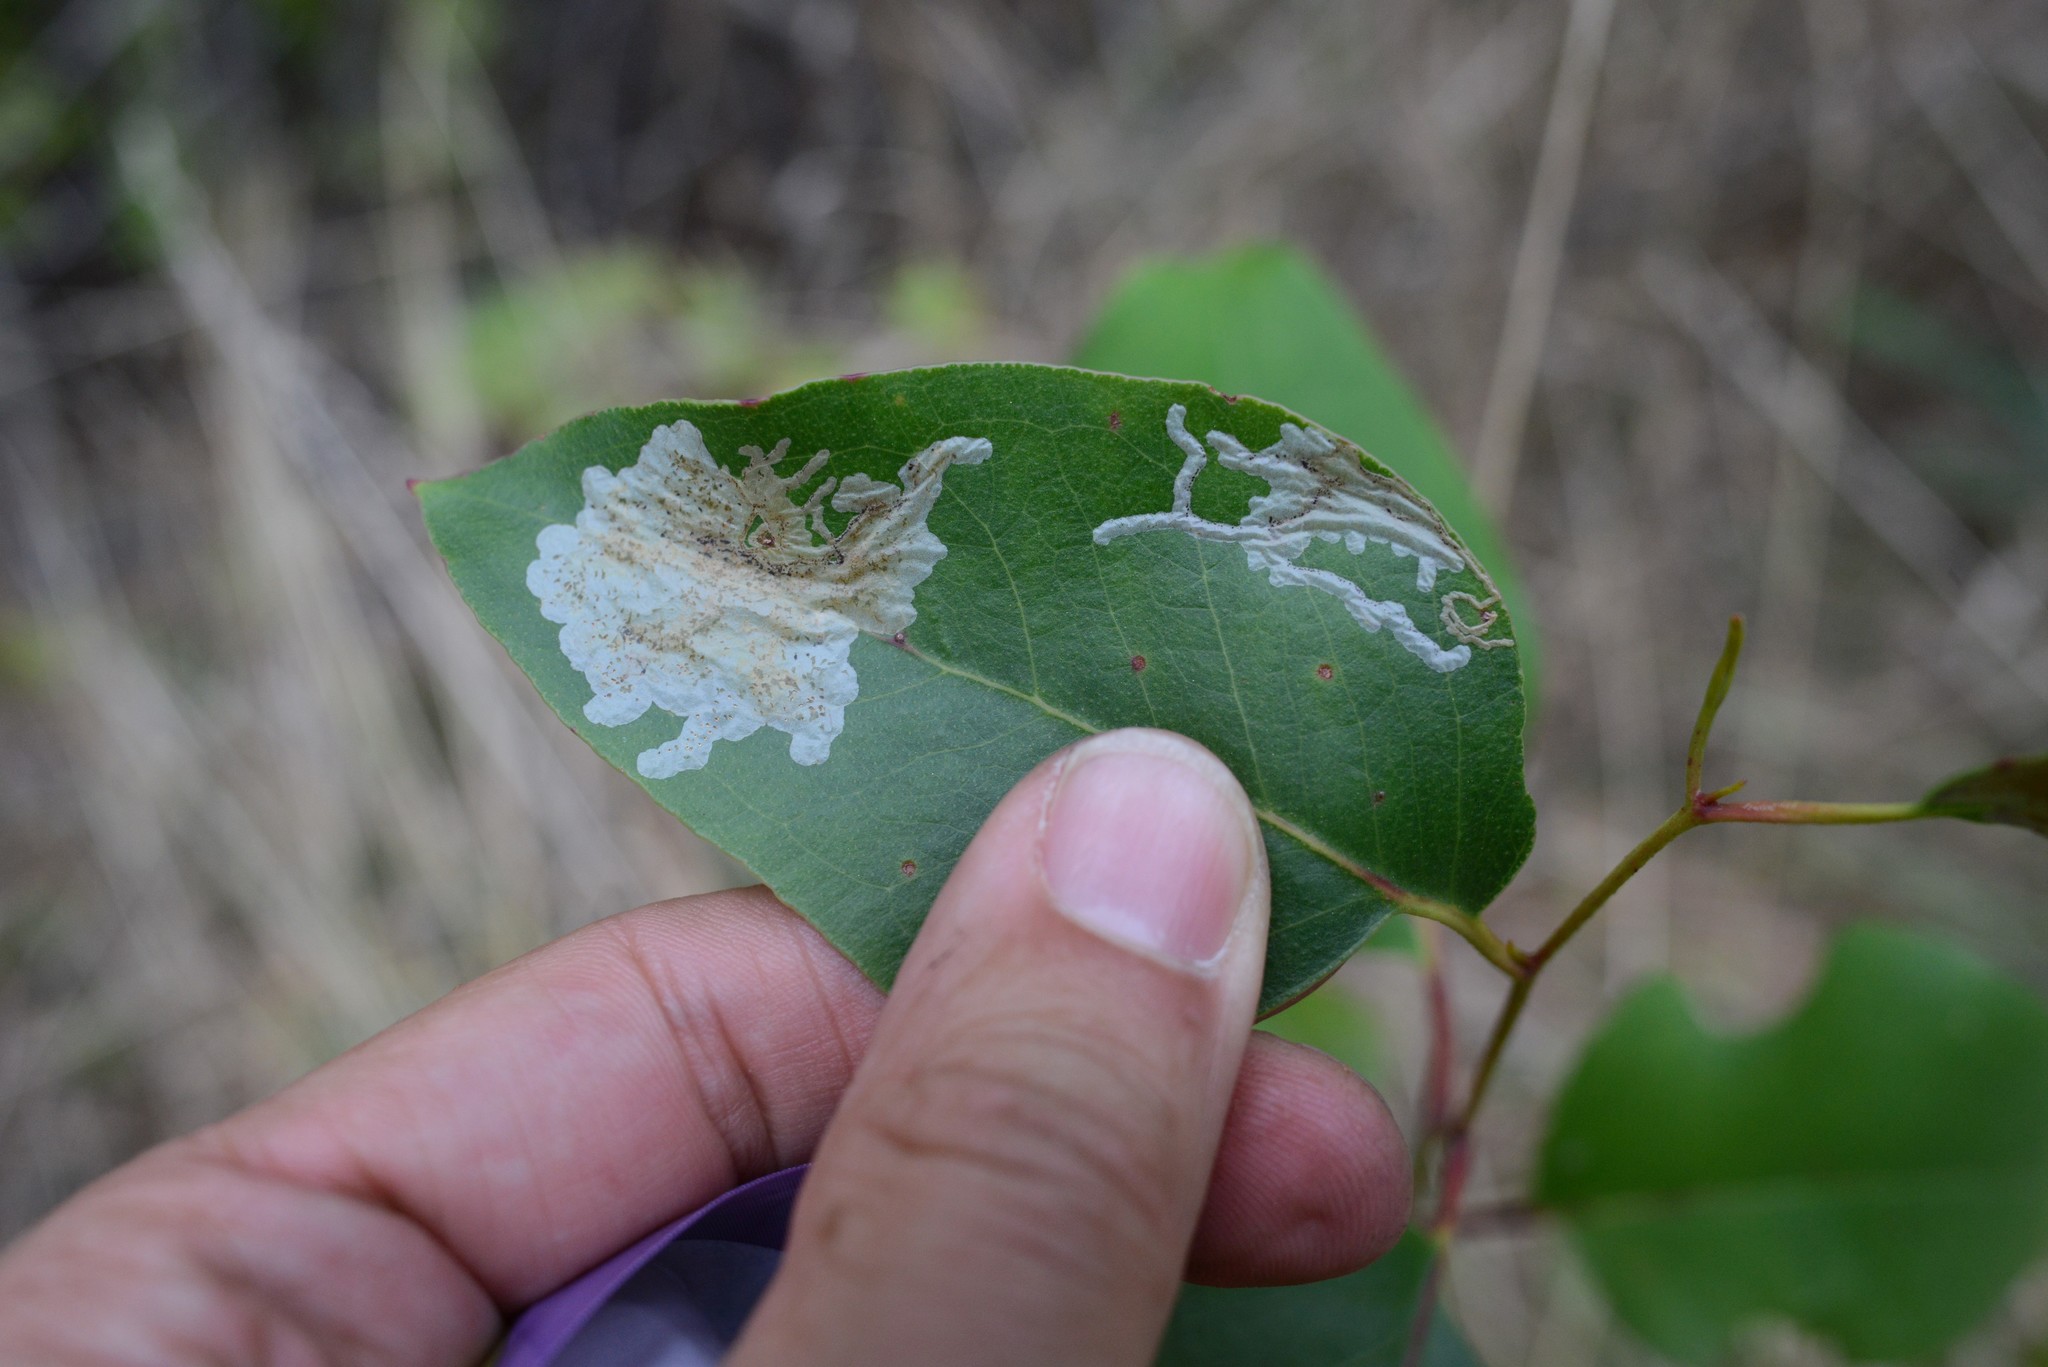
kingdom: Animalia
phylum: Arthropoda
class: Insecta
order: Hymenoptera
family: Pergidae
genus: Phylacteophaga
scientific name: Phylacteophaga froggatti
